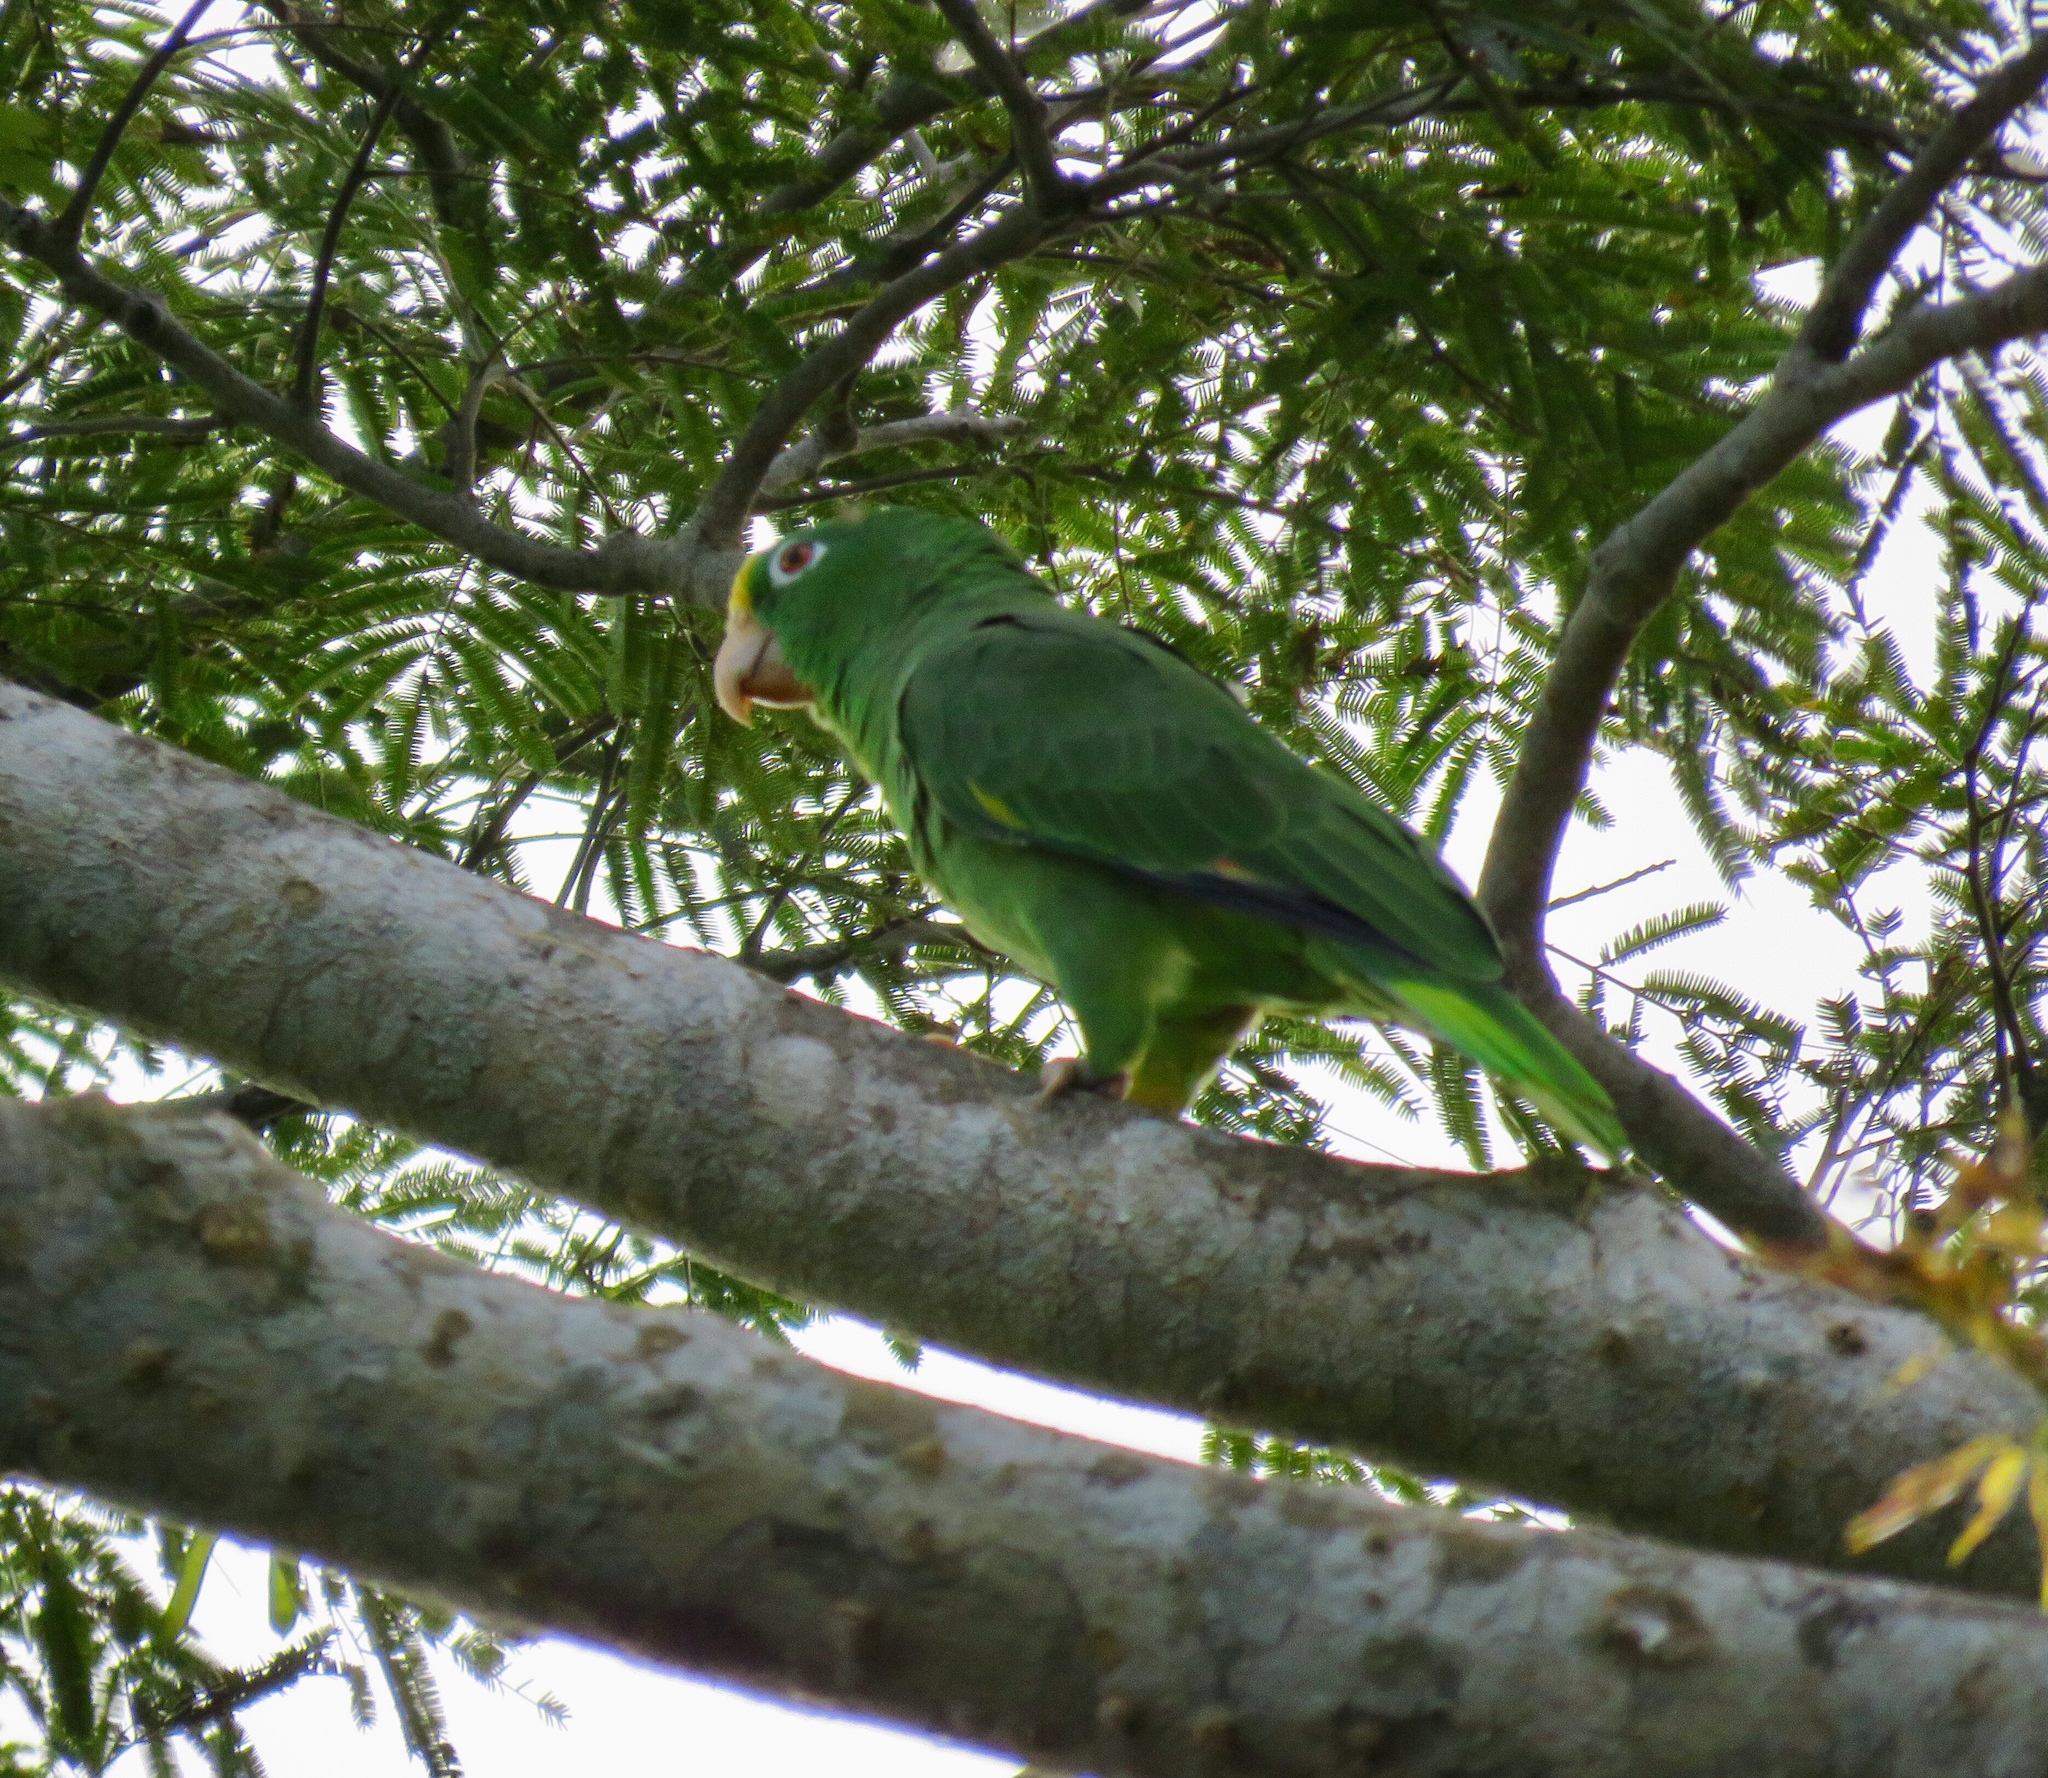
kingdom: Animalia
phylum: Chordata
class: Aves
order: Psittaciformes
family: Psittacidae
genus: Amazona
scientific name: Amazona ochrocephala
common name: Yellow-crowned amazon
